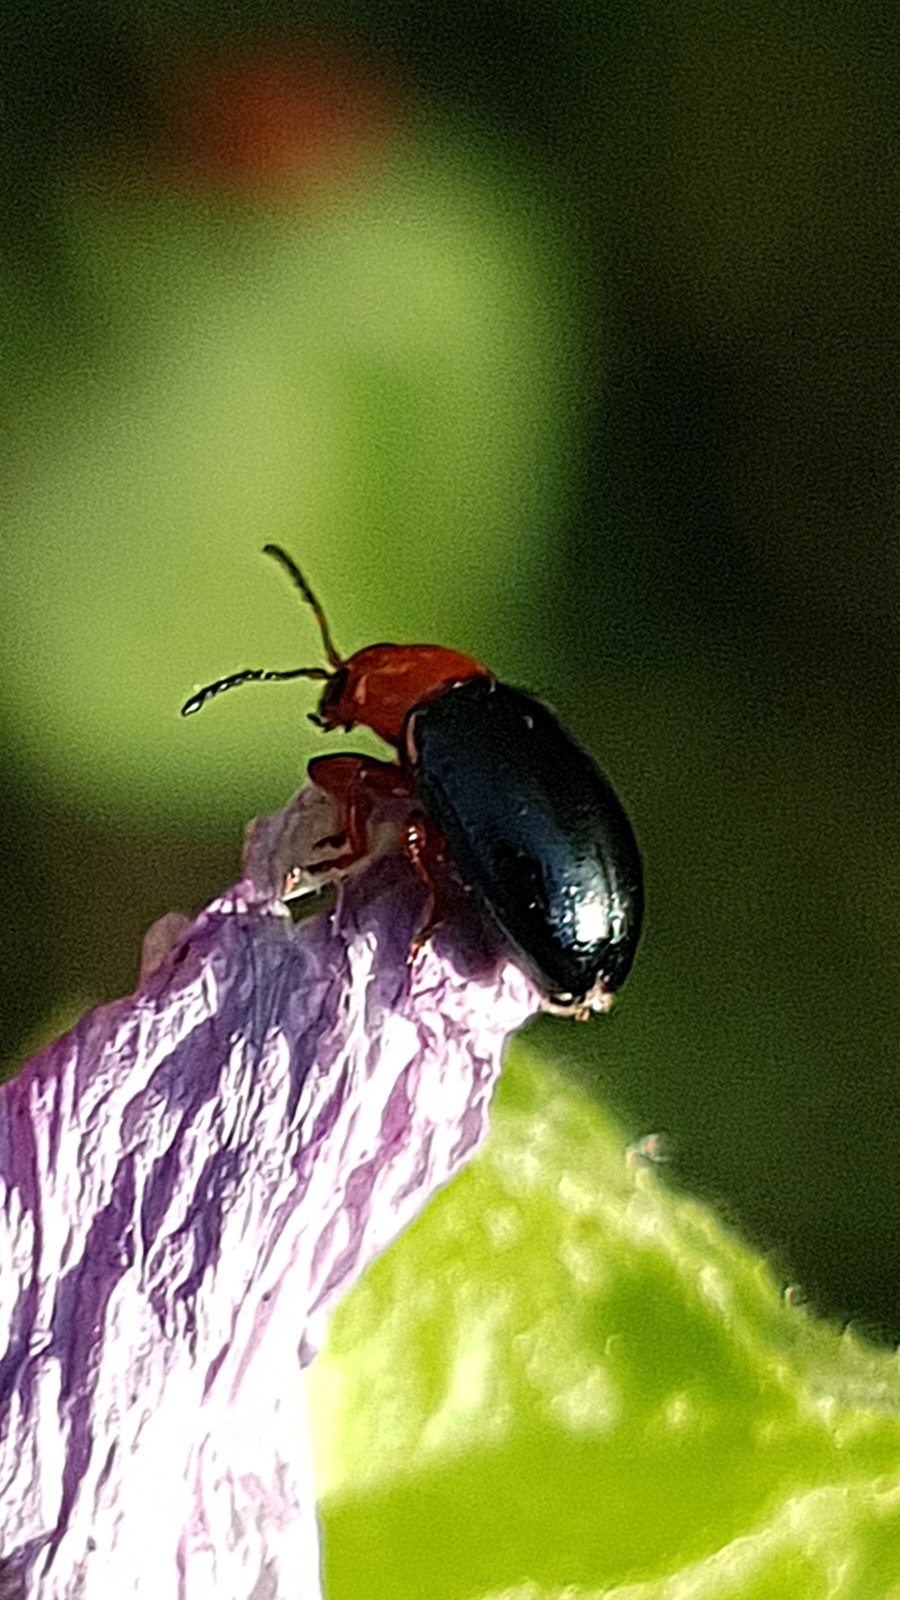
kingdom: Animalia
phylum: Arthropoda
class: Insecta
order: Coleoptera
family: Chrysomelidae
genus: Podagrica
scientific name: Podagrica fuscicornis
